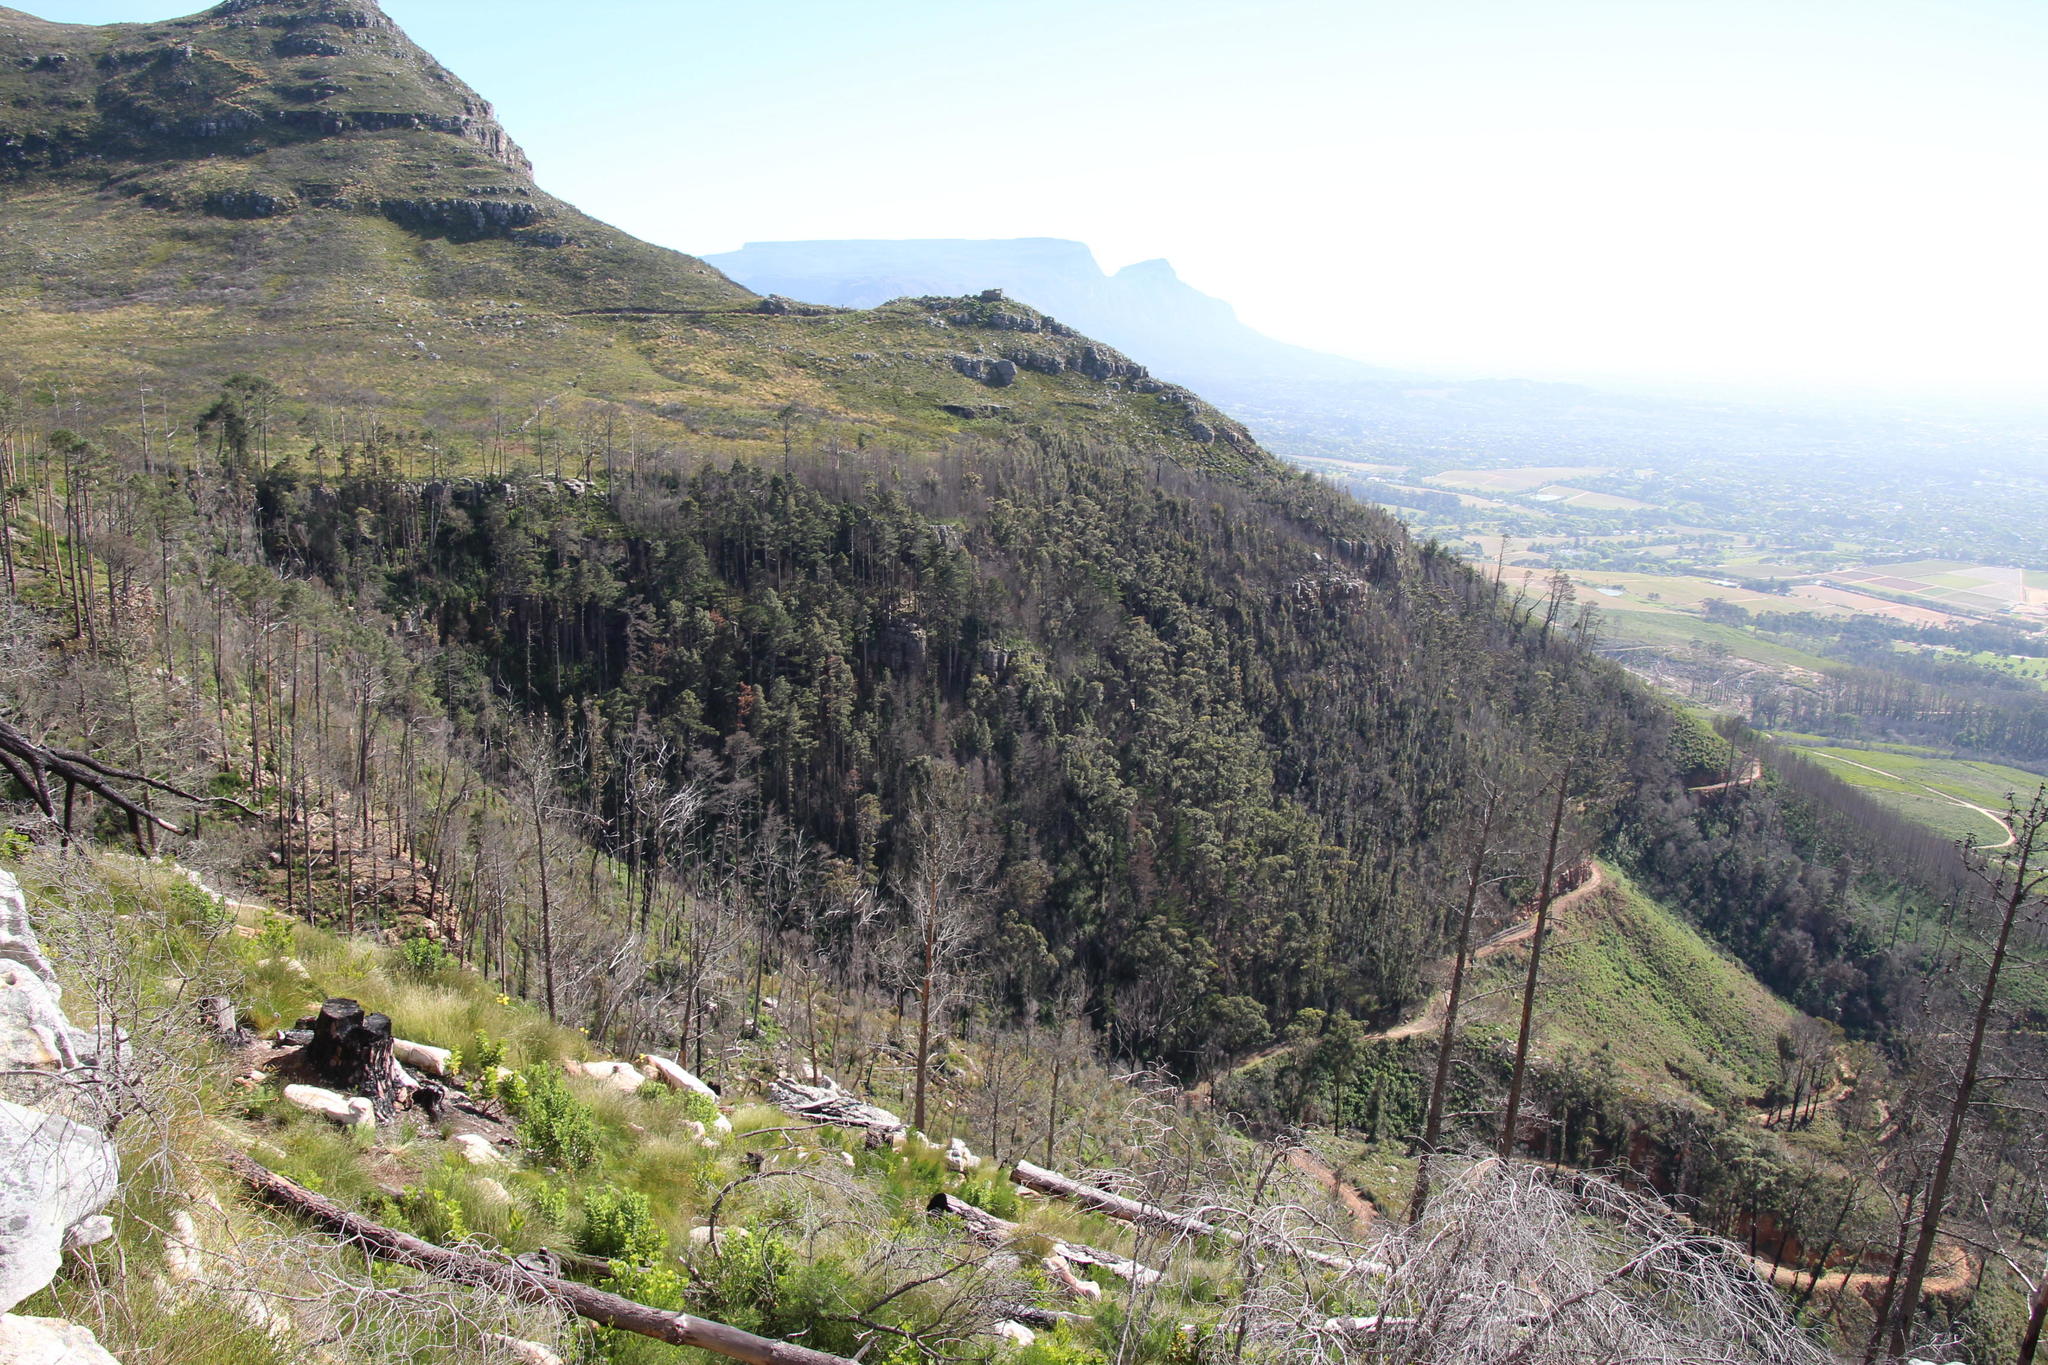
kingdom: Plantae
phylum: Tracheophyta
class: Magnoliopsida
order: Fabales
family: Fabaceae
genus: Acacia
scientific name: Acacia melanoxylon
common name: Blackwood
